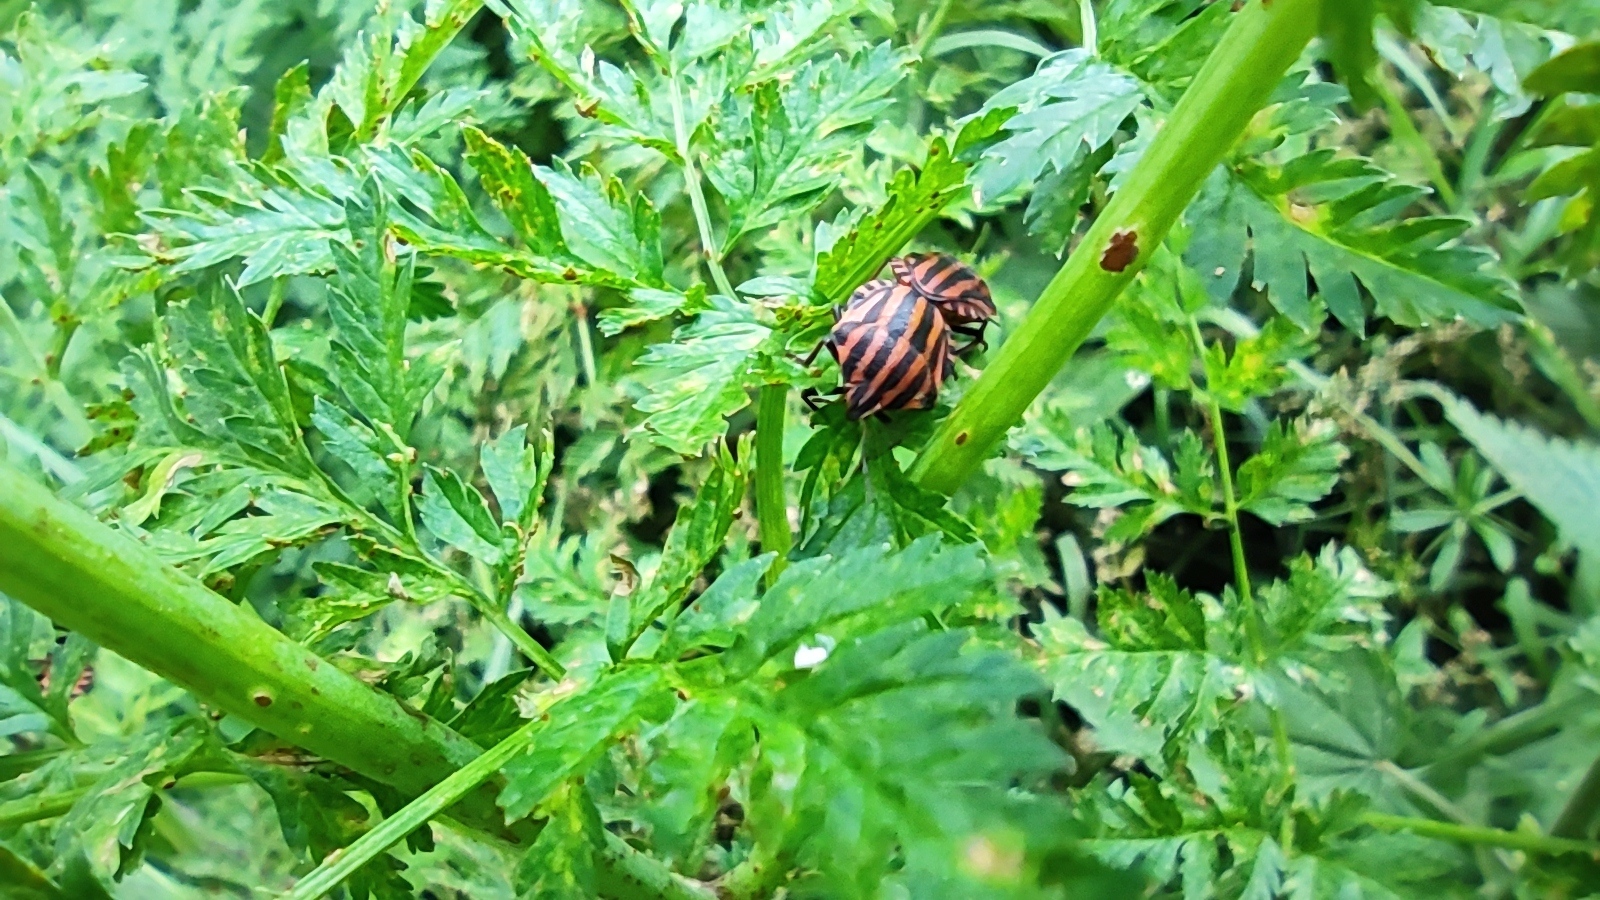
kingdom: Animalia
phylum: Arthropoda
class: Insecta
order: Hemiptera
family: Pentatomidae
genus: Graphosoma
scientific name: Graphosoma italicum
